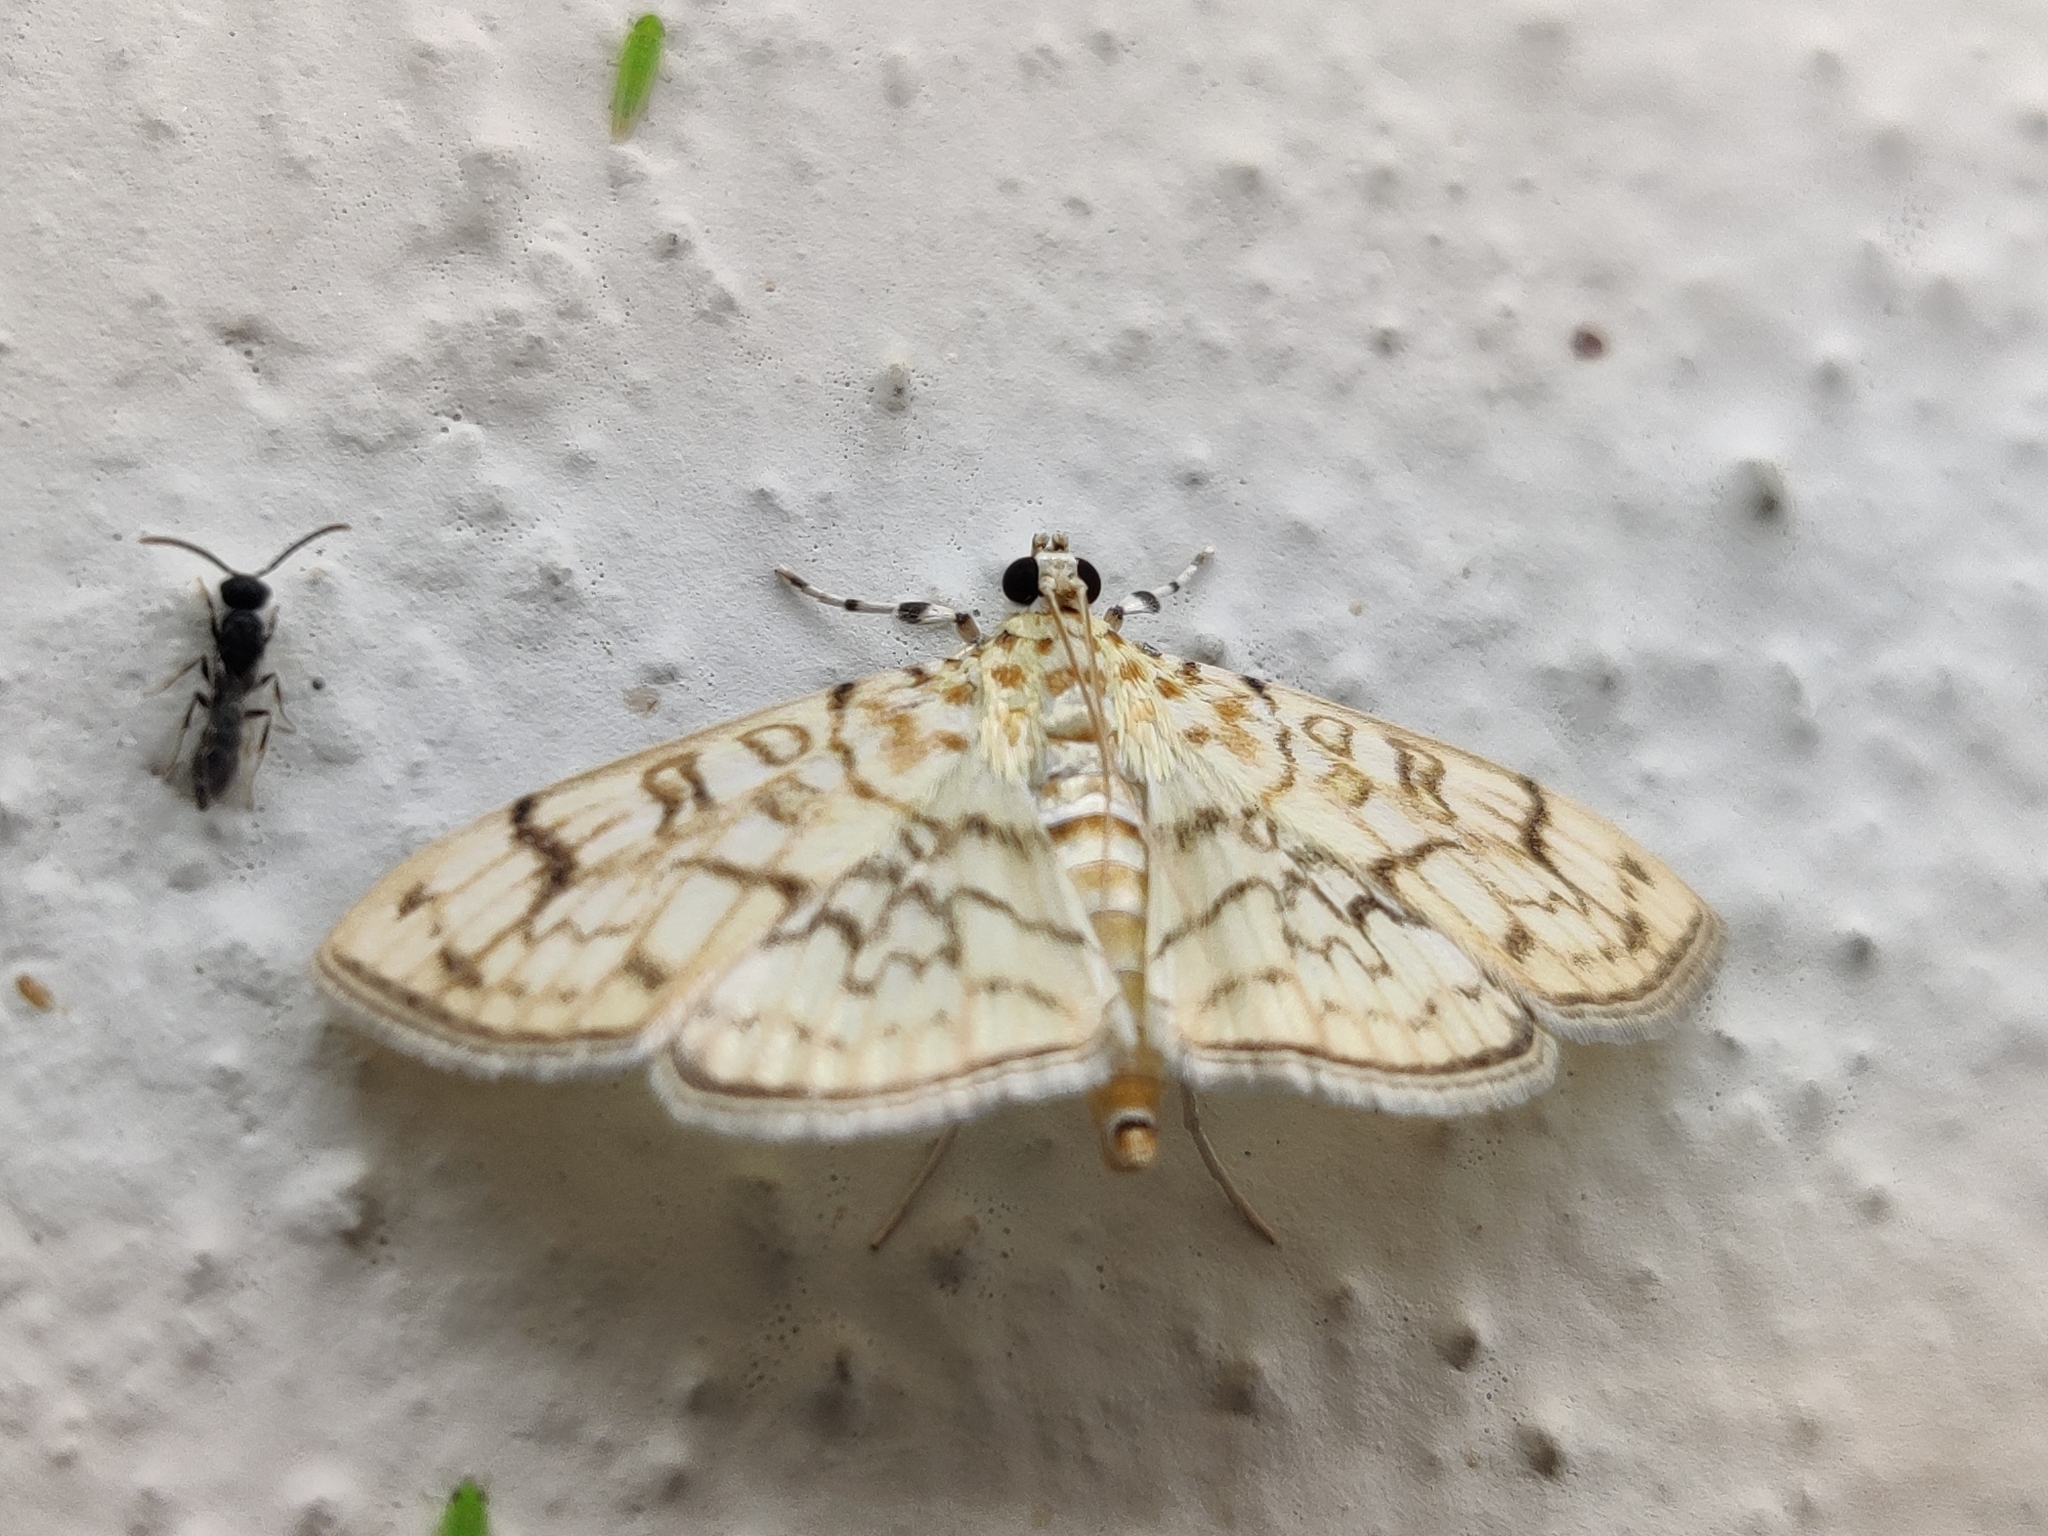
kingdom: Animalia
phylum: Arthropoda
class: Insecta
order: Lepidoptera
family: Crambidae
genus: Haritalodes
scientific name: Haritalodes derogata
